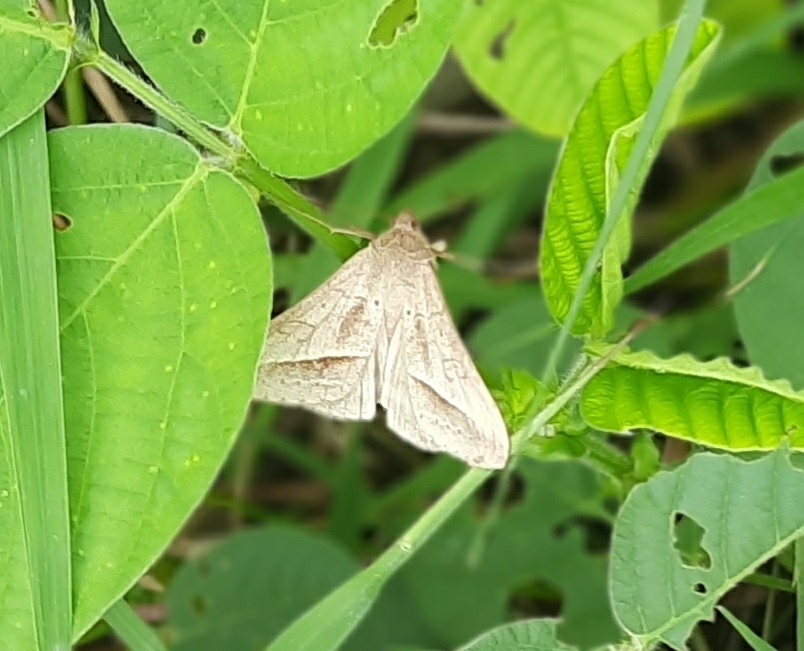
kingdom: Animalia
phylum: Arthropoda
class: Insecta
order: Lepidoptera
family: Erebidae
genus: Mocis
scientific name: Mocis frugalis
